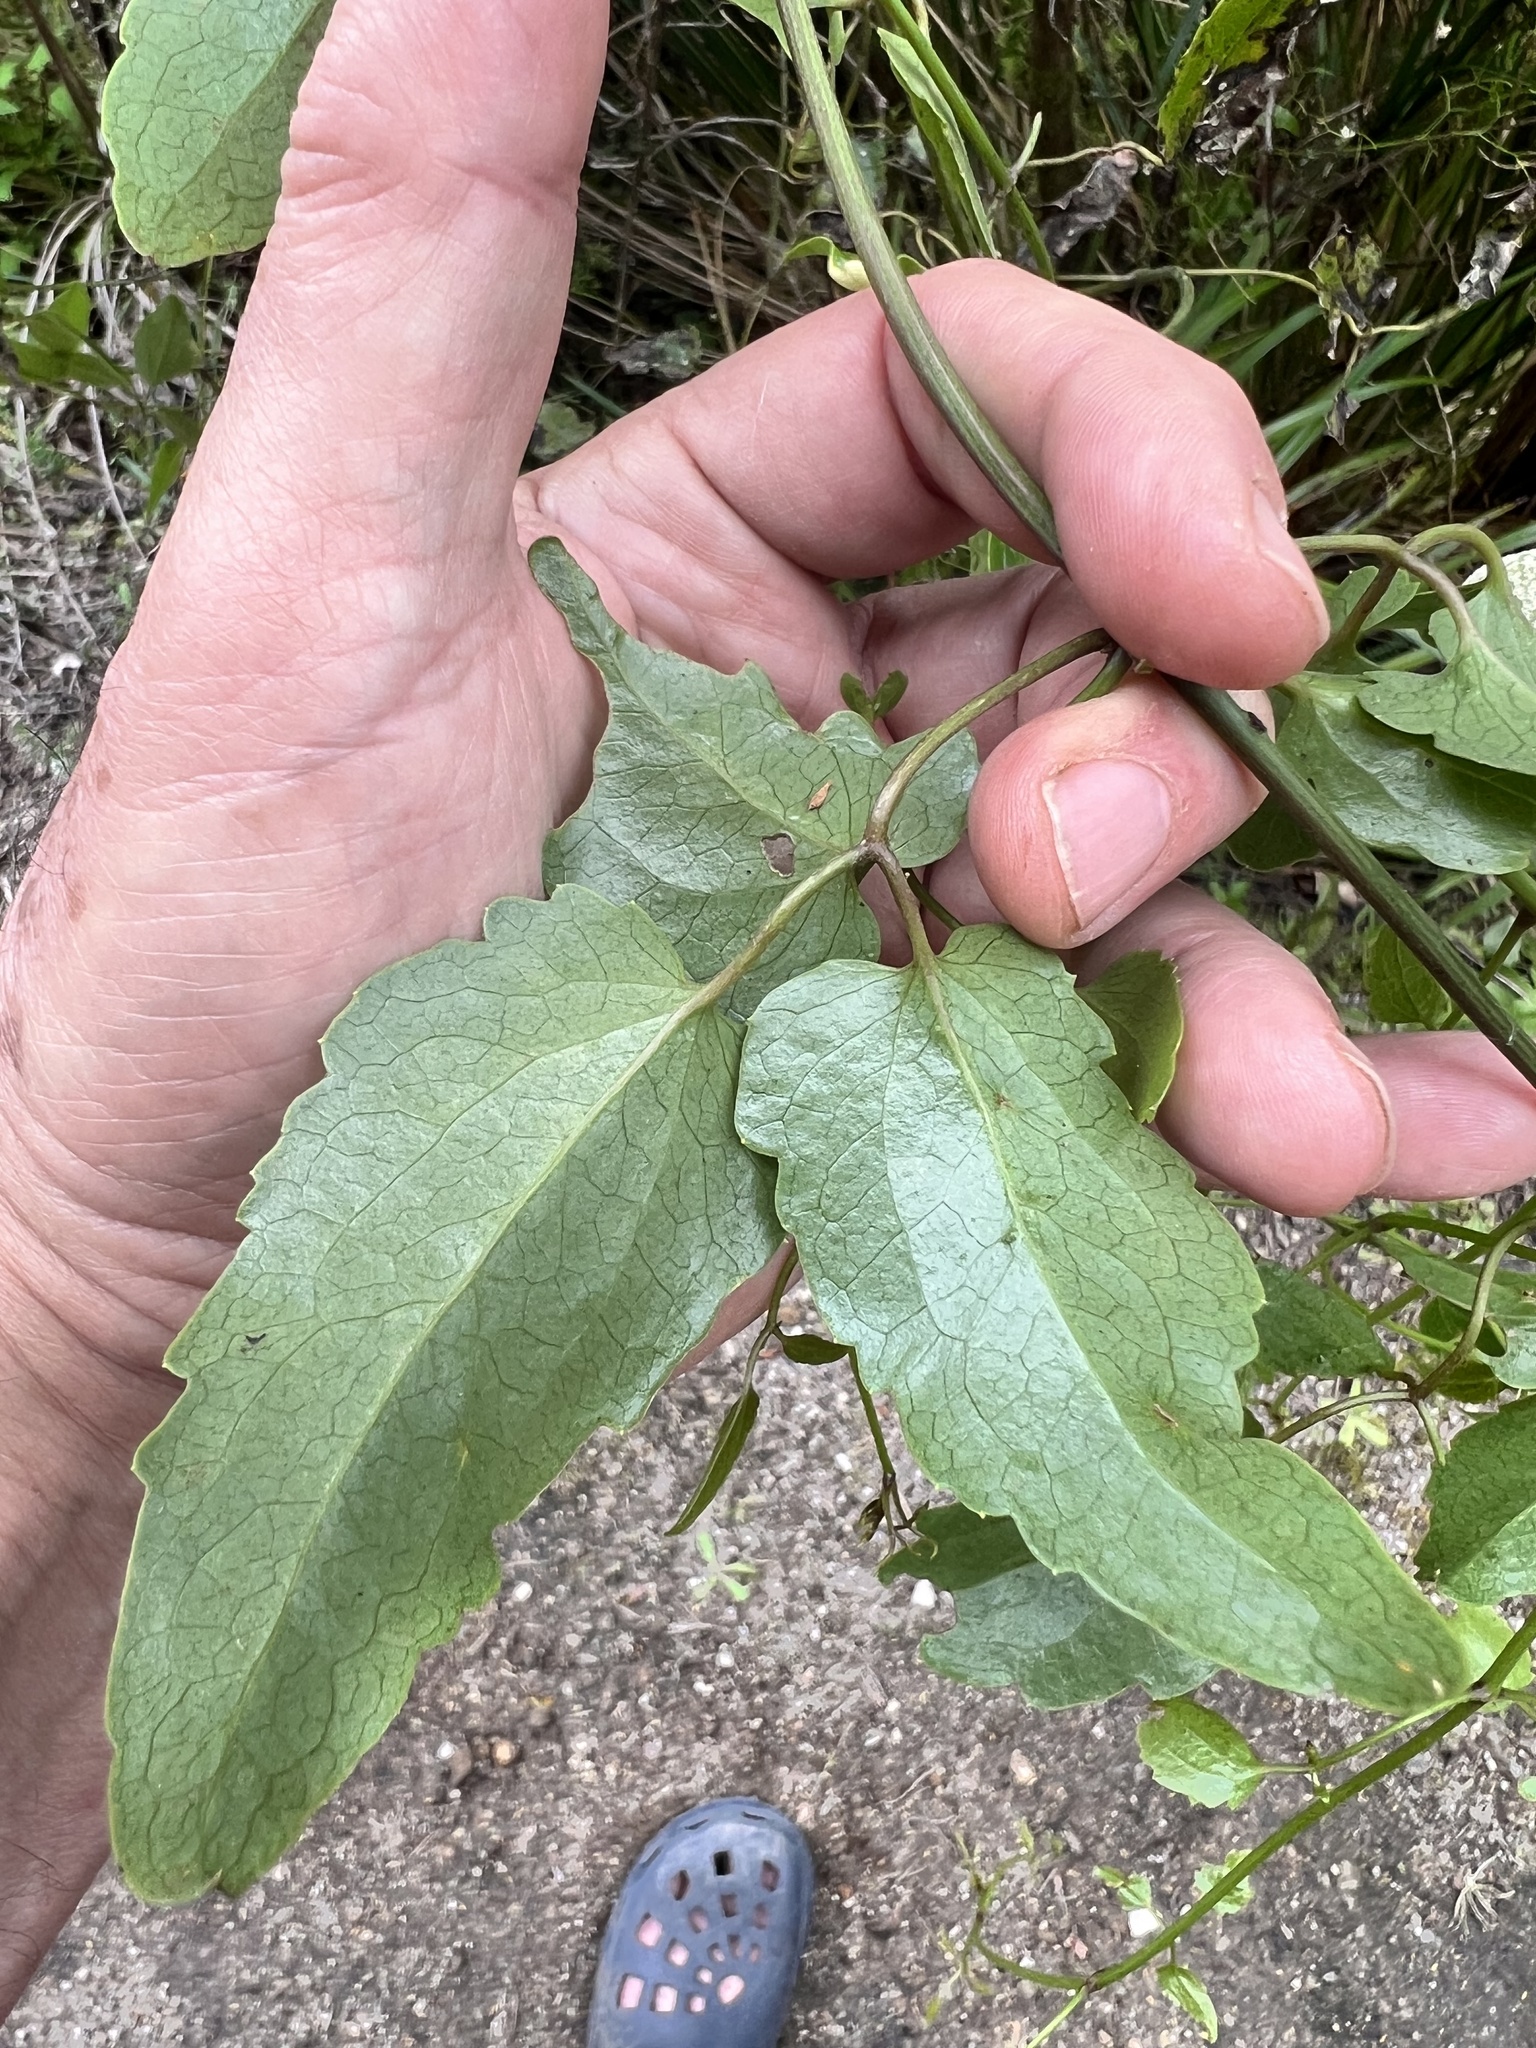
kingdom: Plantae
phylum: Tracheophyta
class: Magnoliopsida
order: Ranunculales
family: Ranunculaceae
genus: Clematis
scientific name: Clematis paniculata
